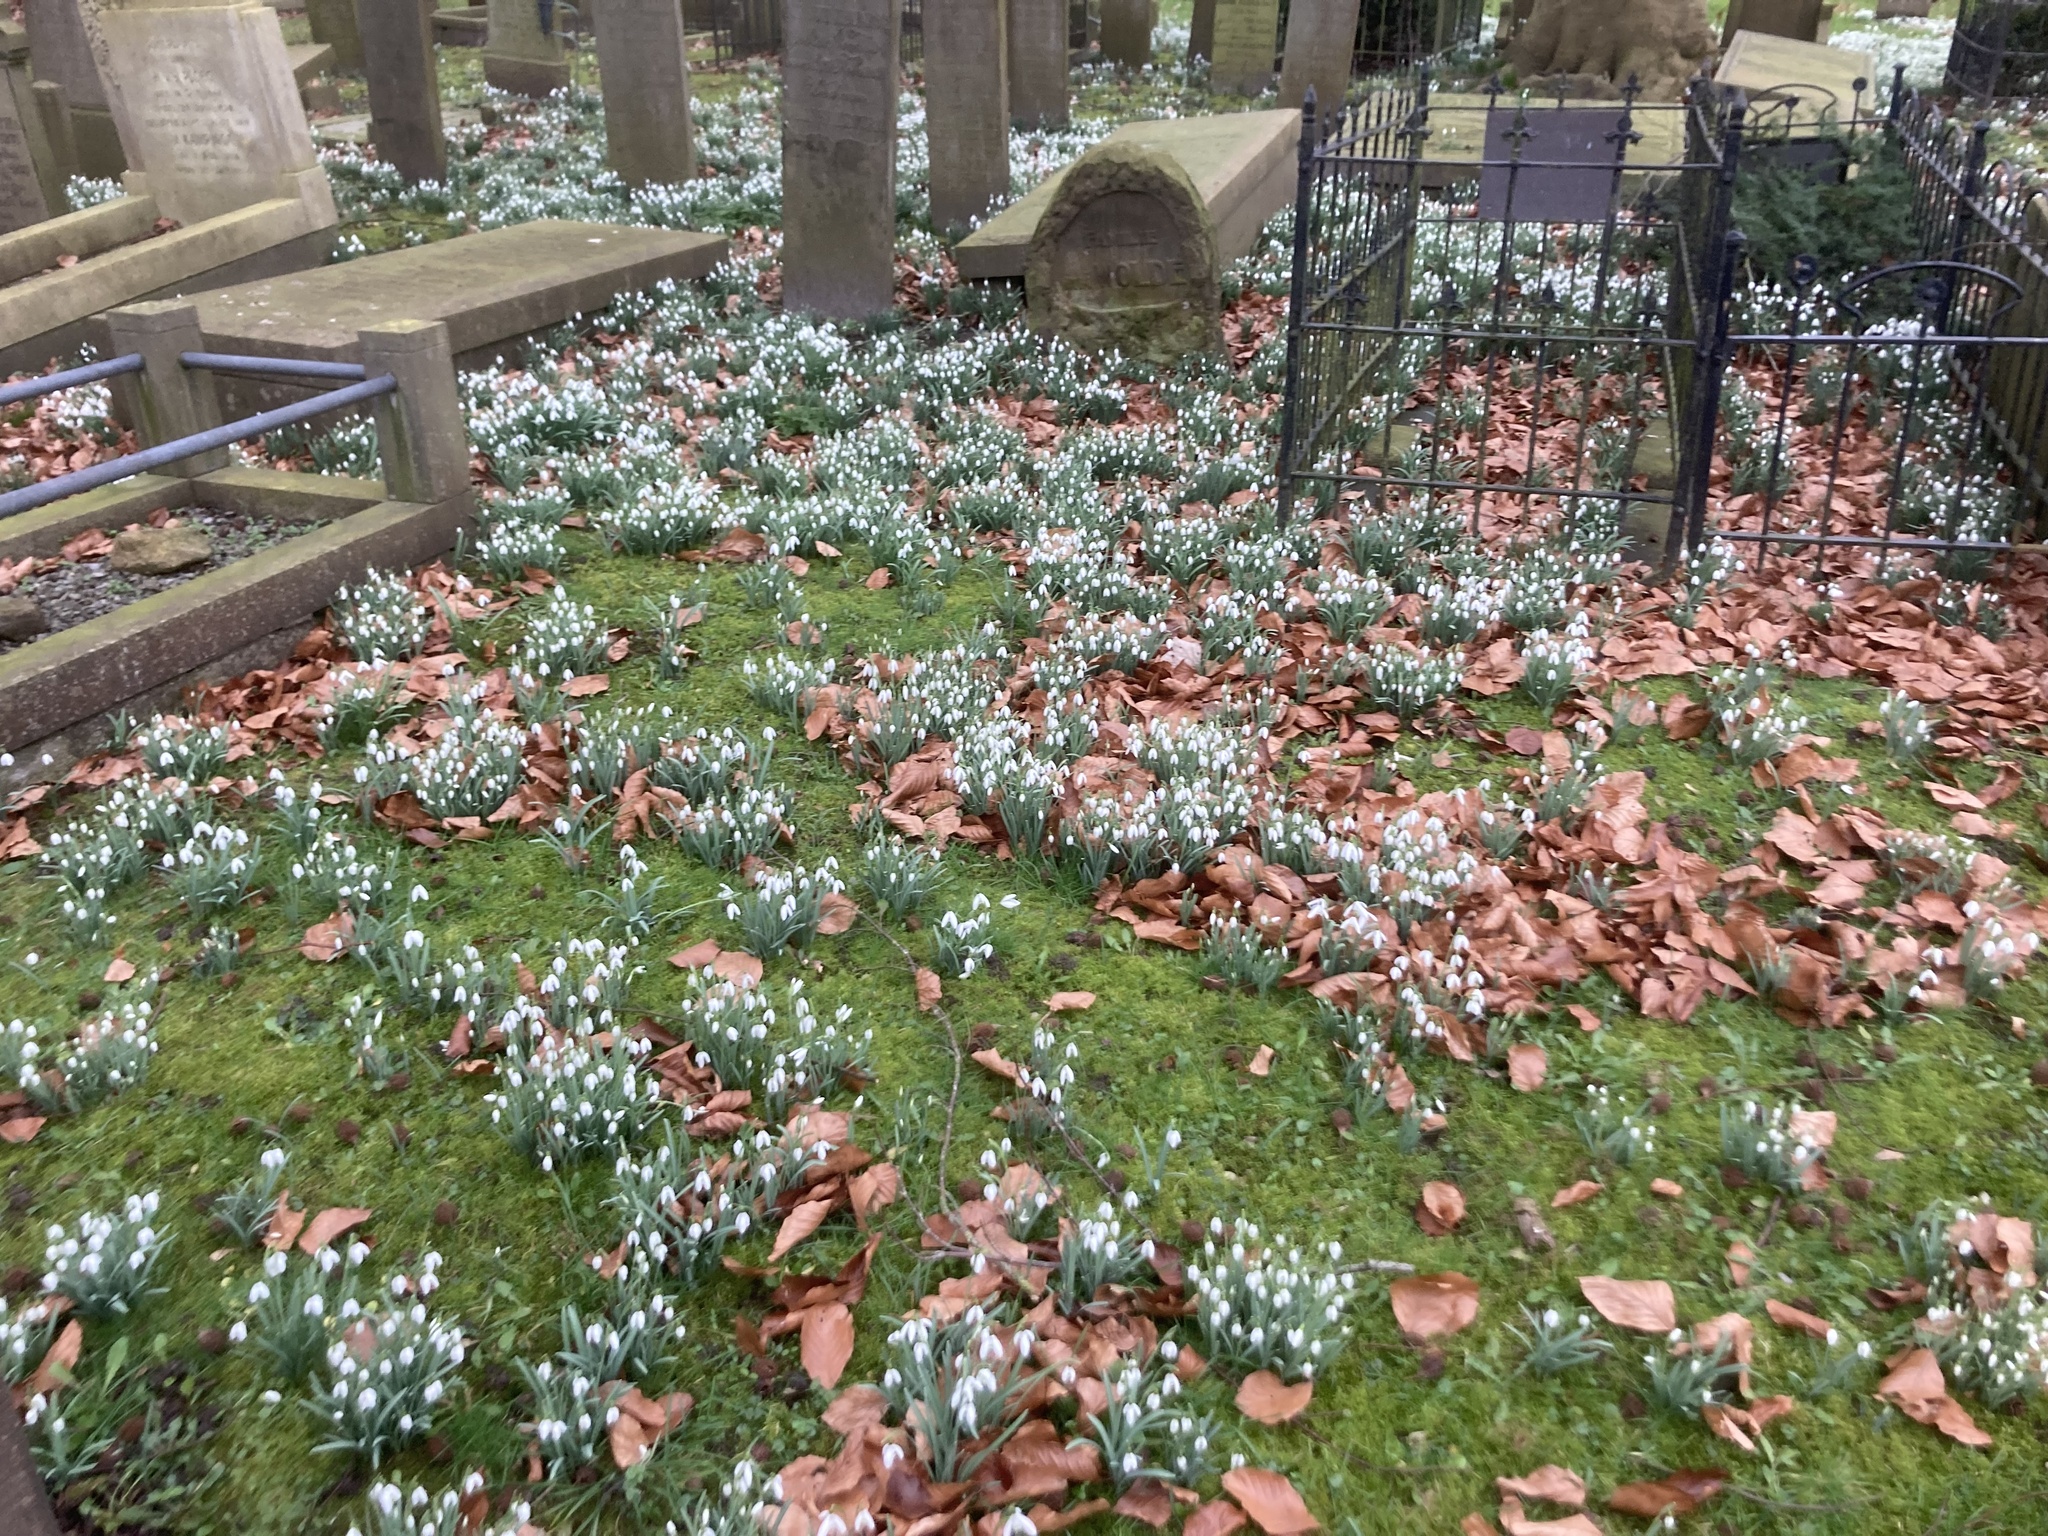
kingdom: Plantae
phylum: Tracheophyta
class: Liliopsida
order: Asparagales
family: Amaryllidaceae
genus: Galanthus
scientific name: Galanthus nivalis
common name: Snowdrop
